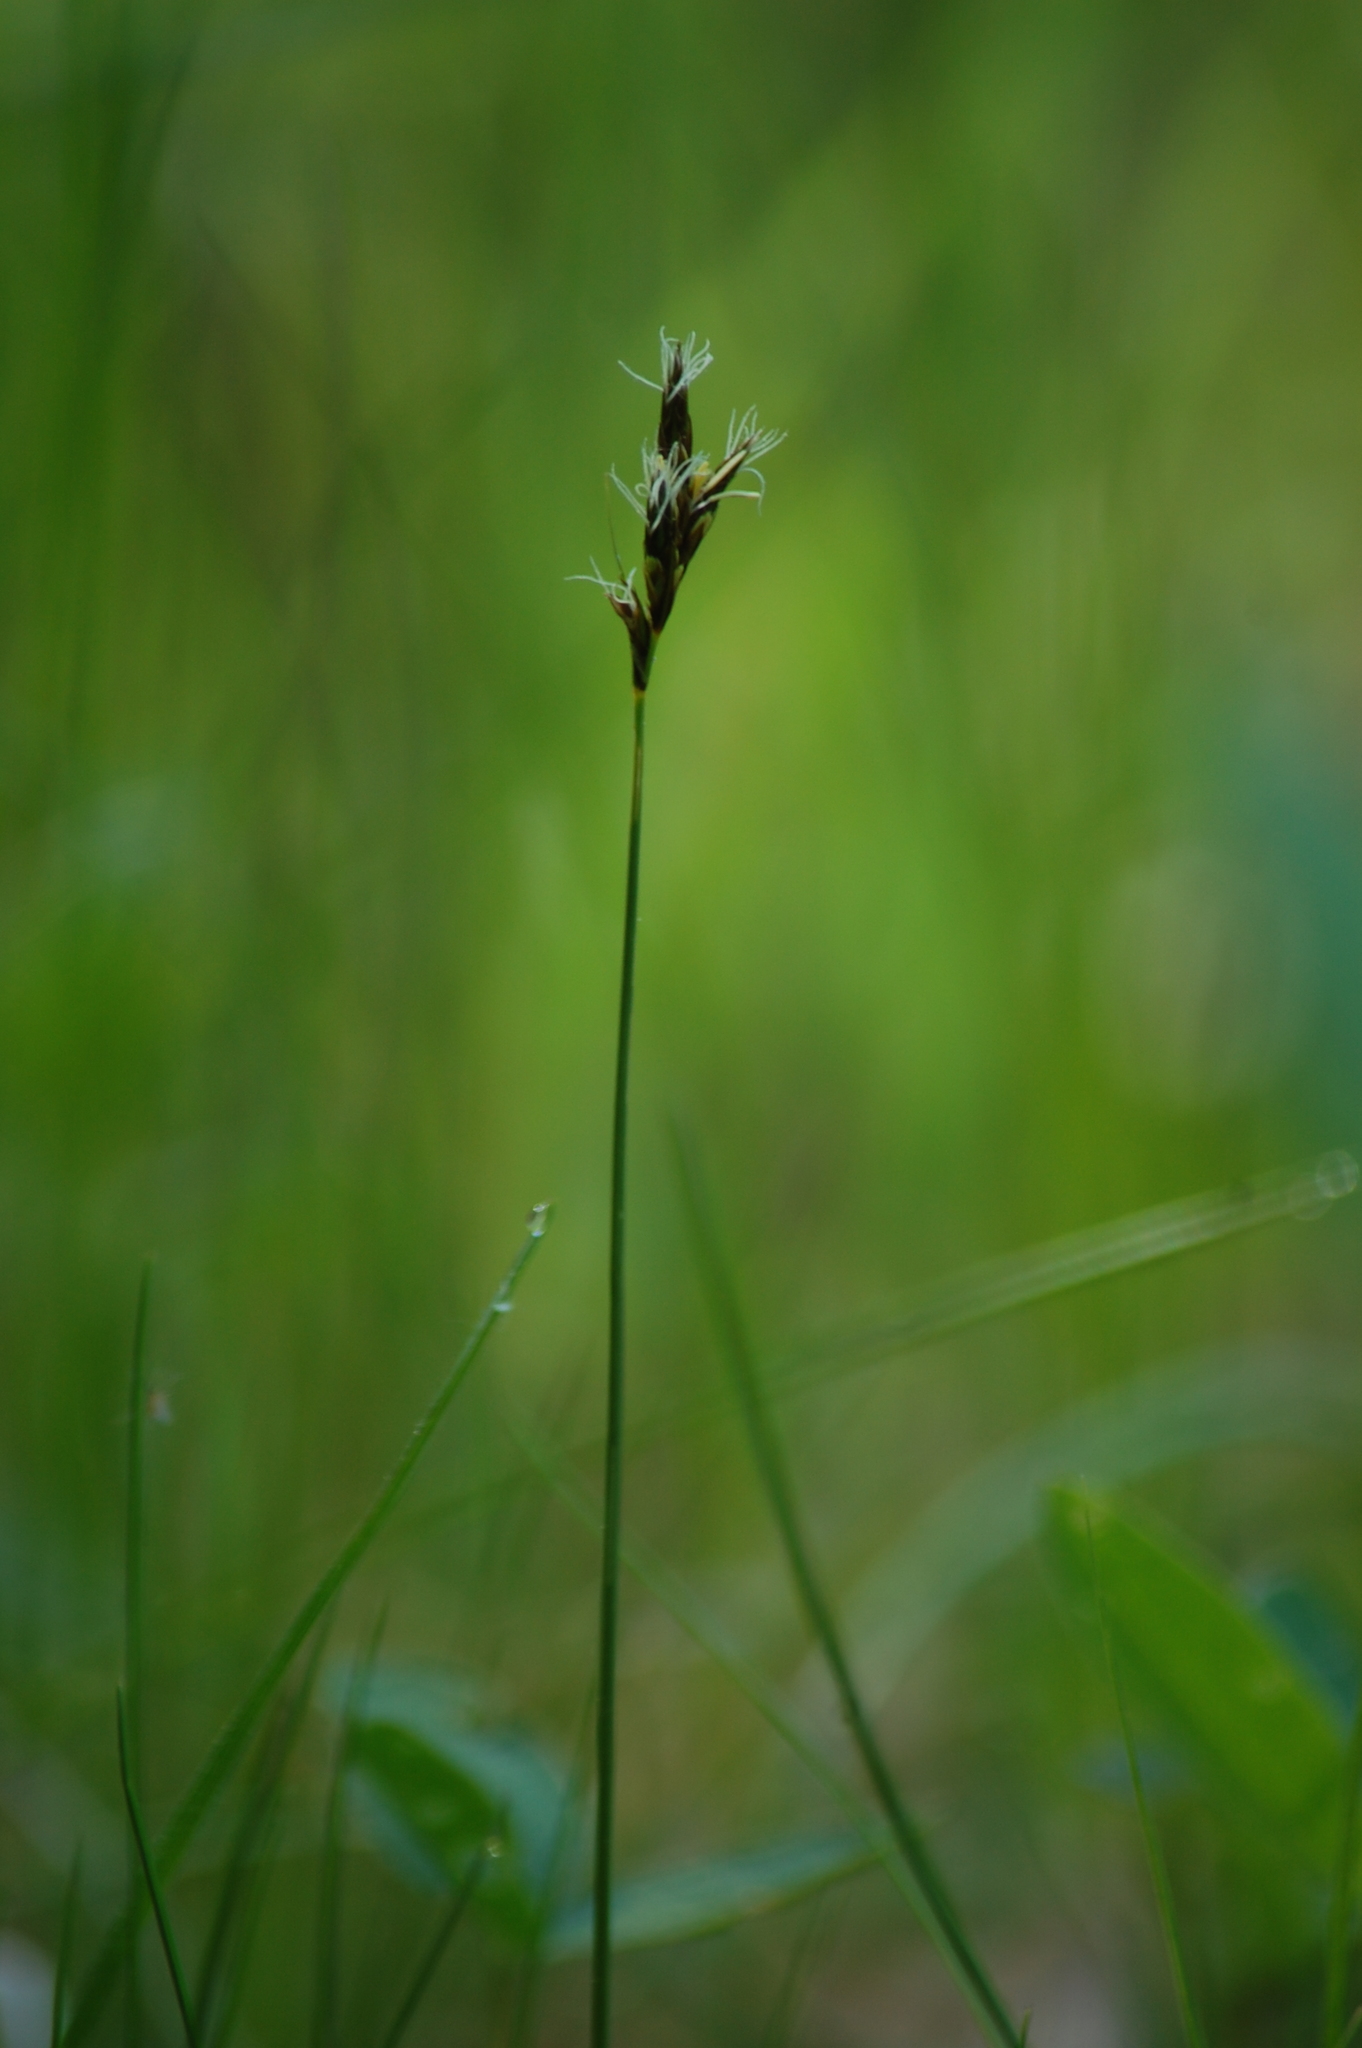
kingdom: Plantae
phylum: Tracheophyta
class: Liliopsida
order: Poales
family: Cyperaceae
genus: Carex
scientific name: Carex praecox
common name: Early sedge
